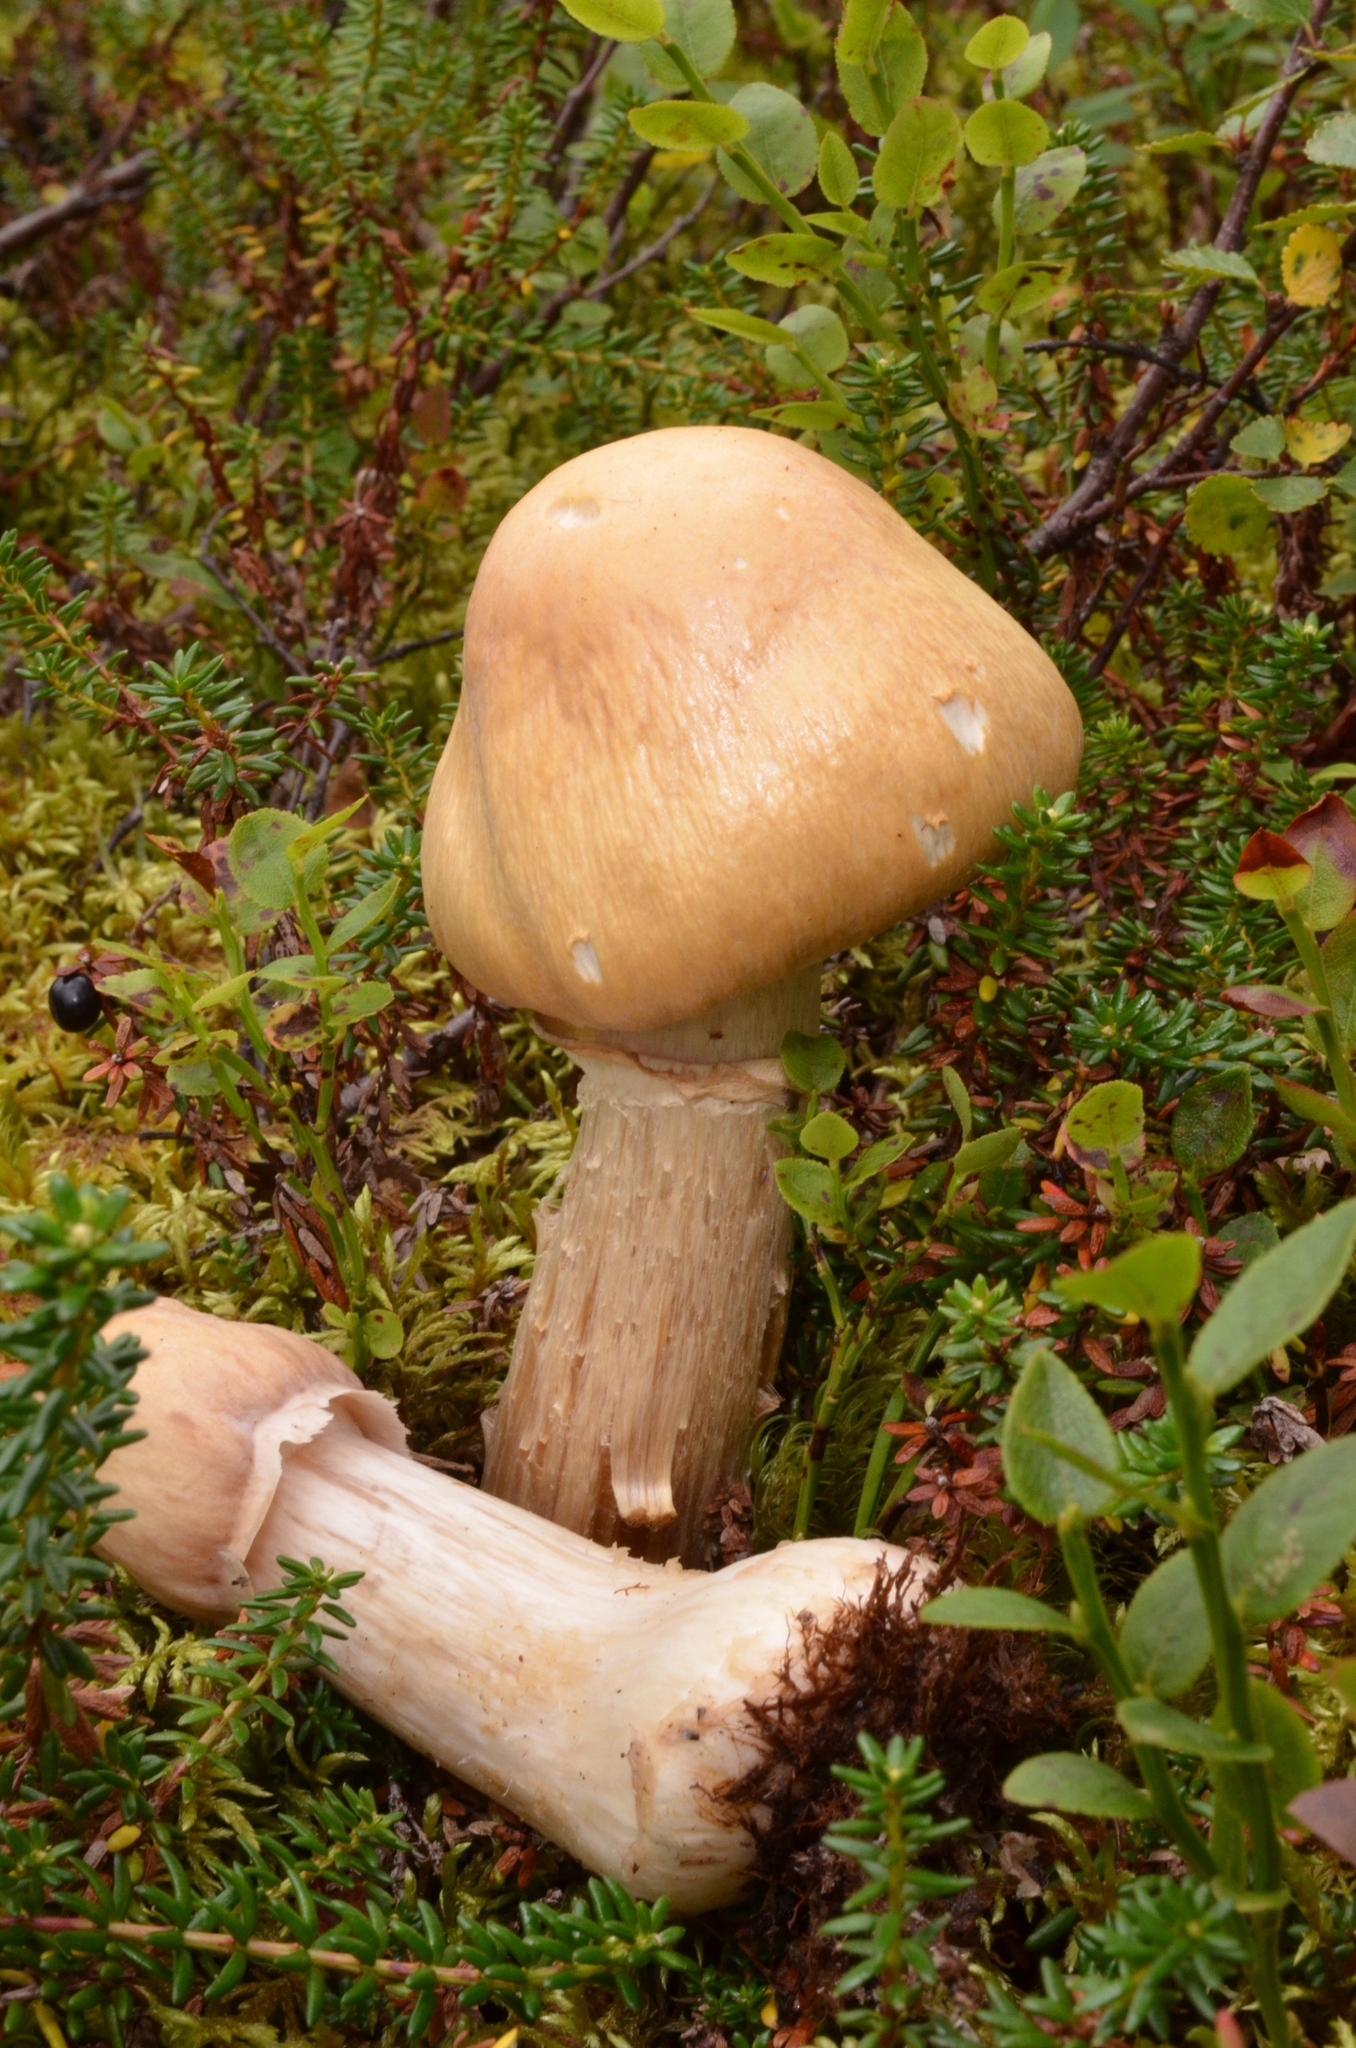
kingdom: Fungi
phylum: Basidiomycota
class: Agaricomycetes
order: Agaricales
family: Cortinariaceae
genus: Cortinarius
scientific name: Cortinarius caperatus
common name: The gypsy
